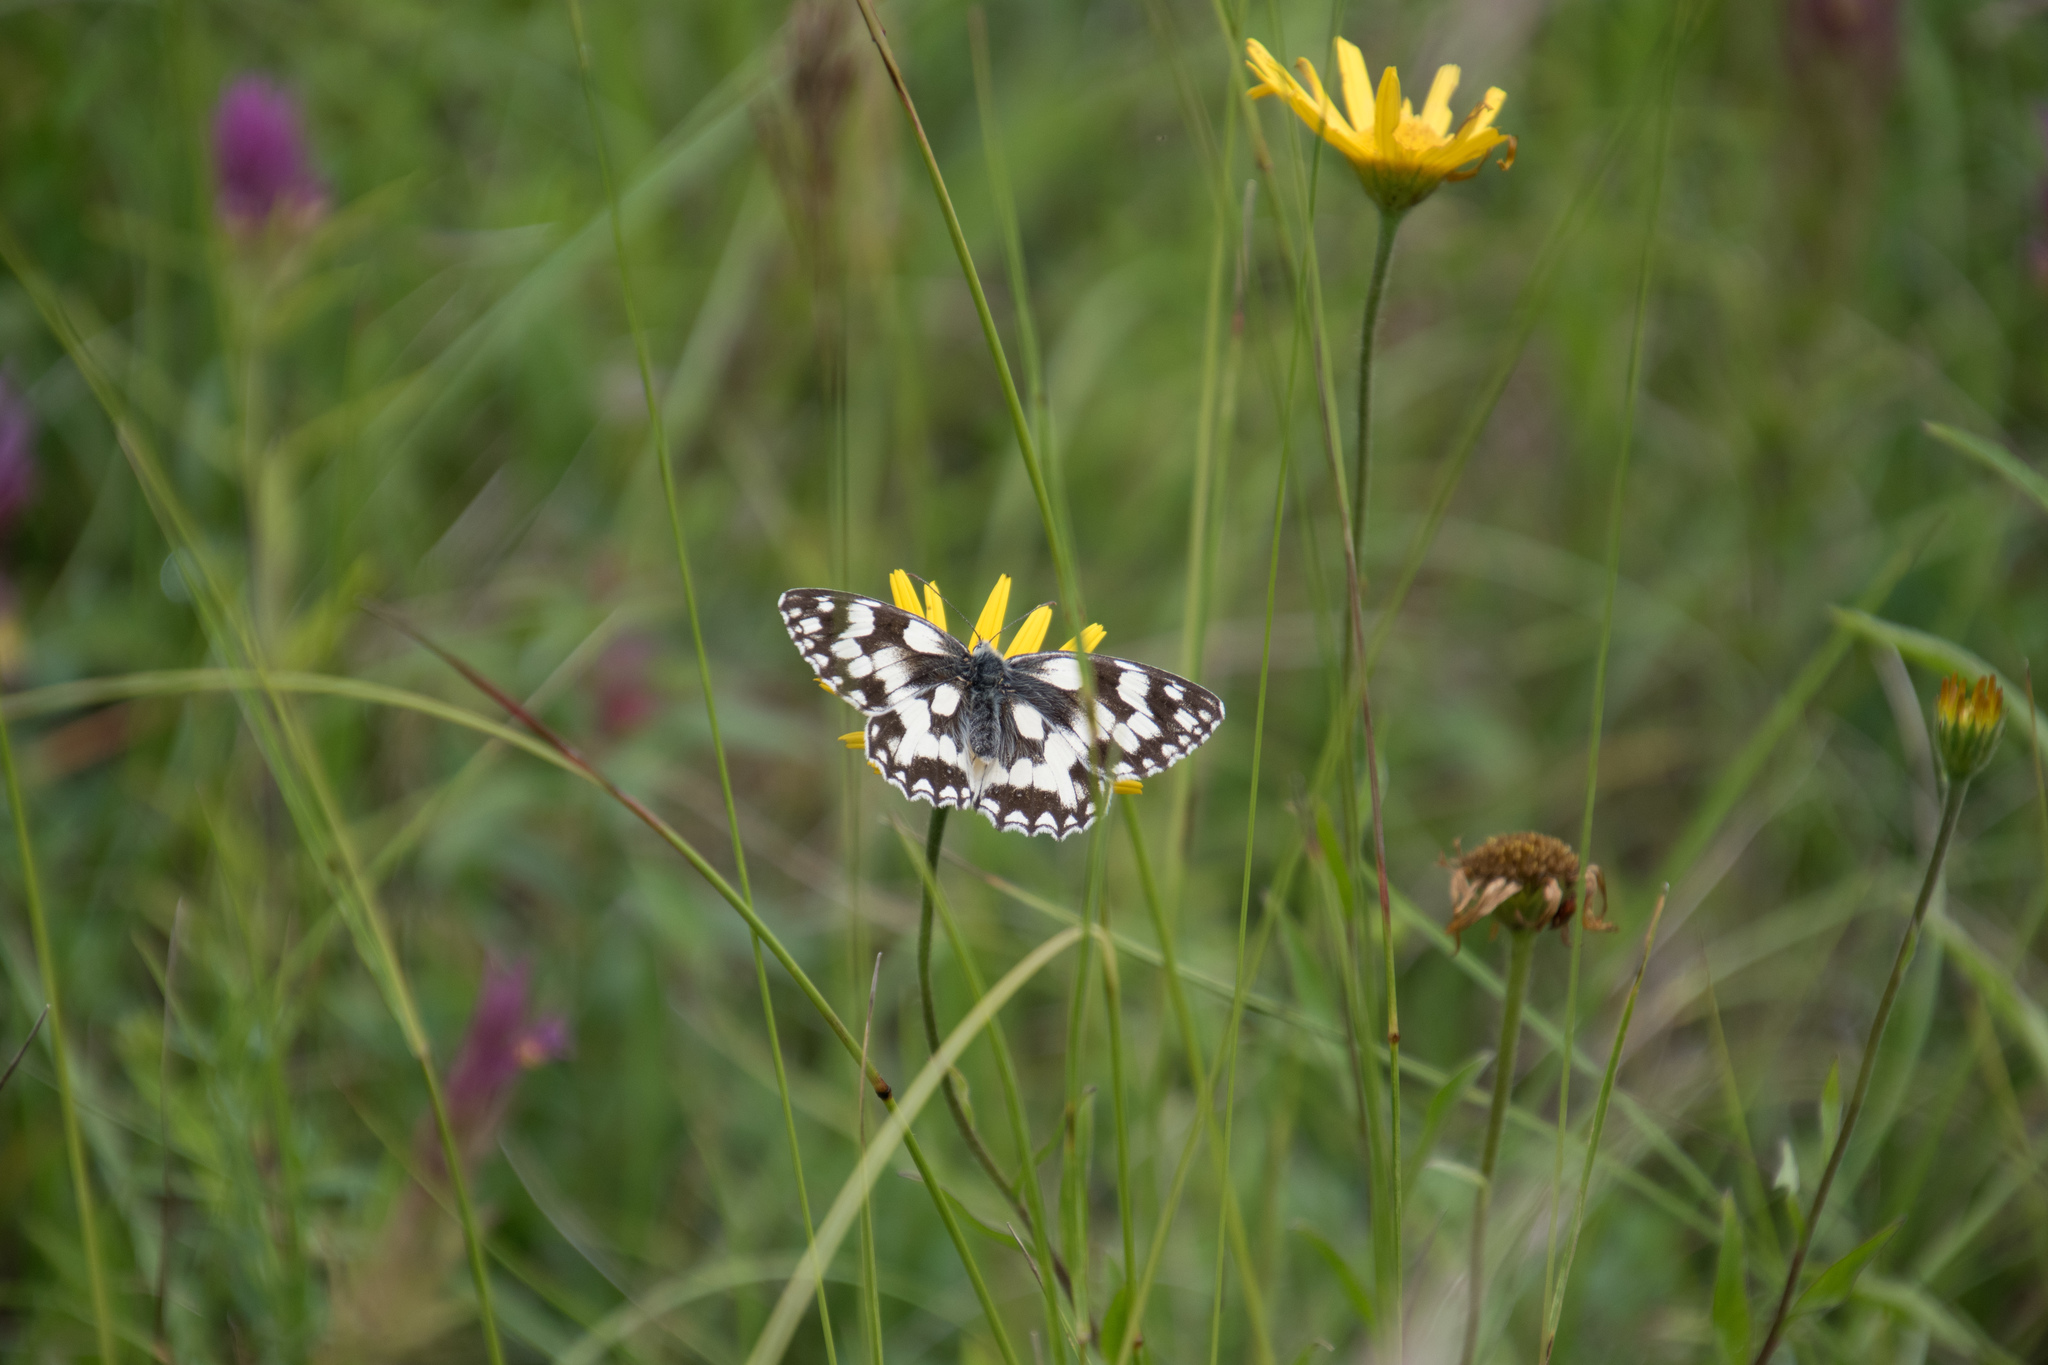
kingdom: Animalia
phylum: Arthropoda
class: Insecta
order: Lepidoptera
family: Nymphalidae
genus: Melanargia
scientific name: Melanargia galathea
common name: Marbled white
